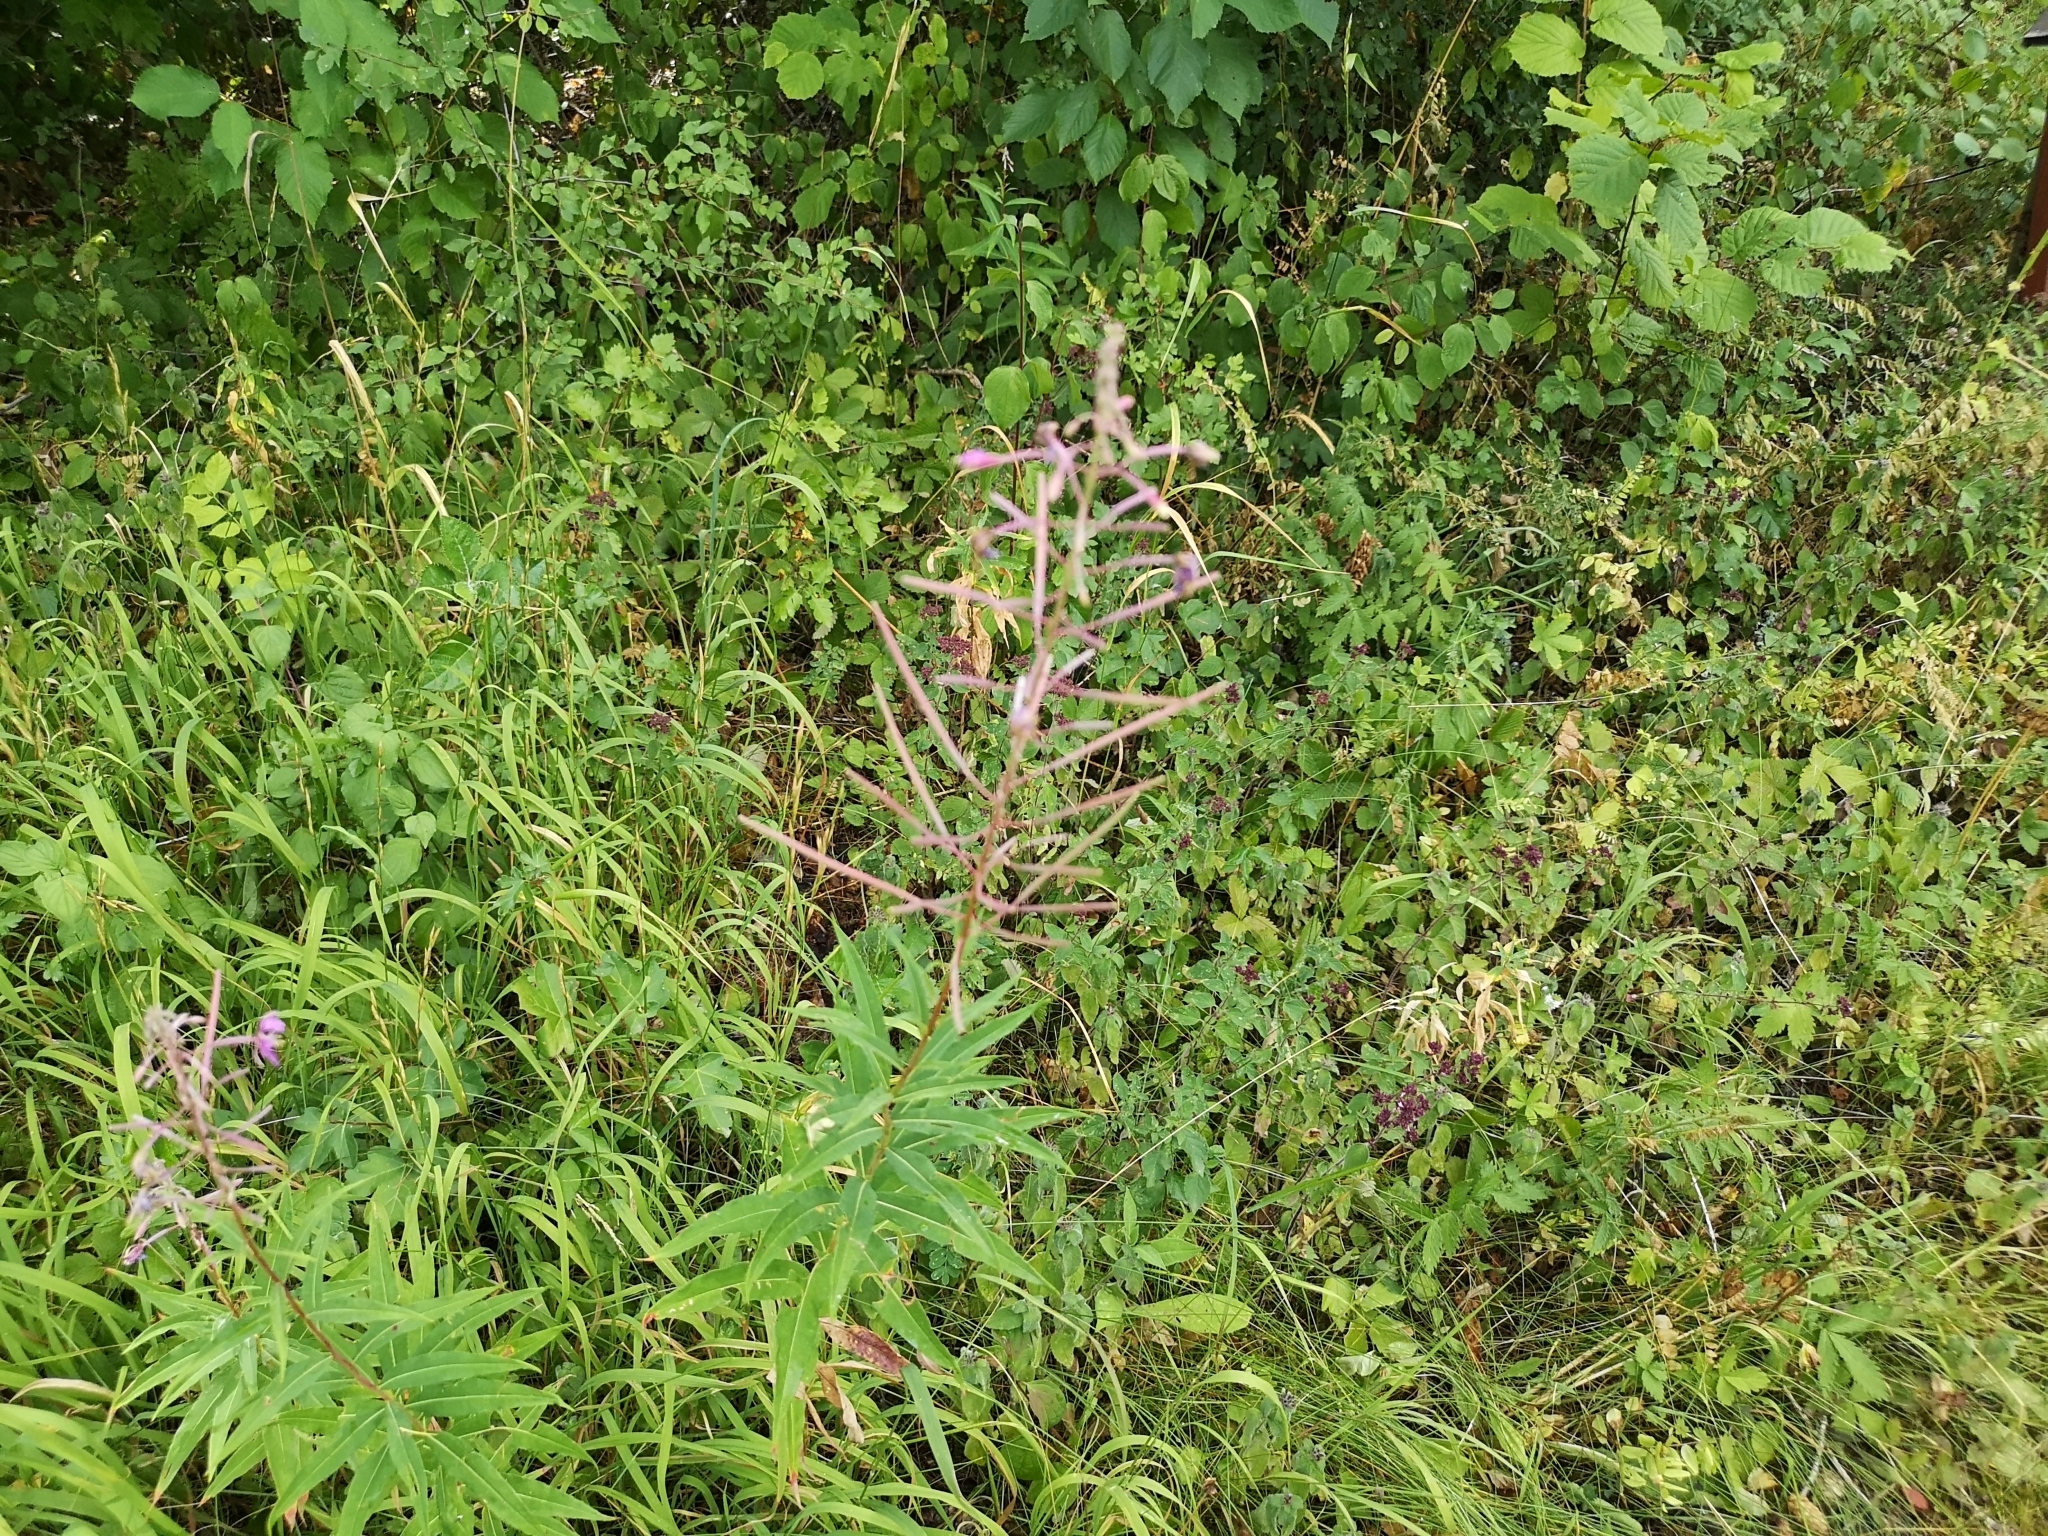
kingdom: Plantae
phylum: Tracheophyta
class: Magnoliopsida
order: Myrtales
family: Onagraceae
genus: Chamaenerion
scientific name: Chamaenerion angustifolium
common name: Fireweed
